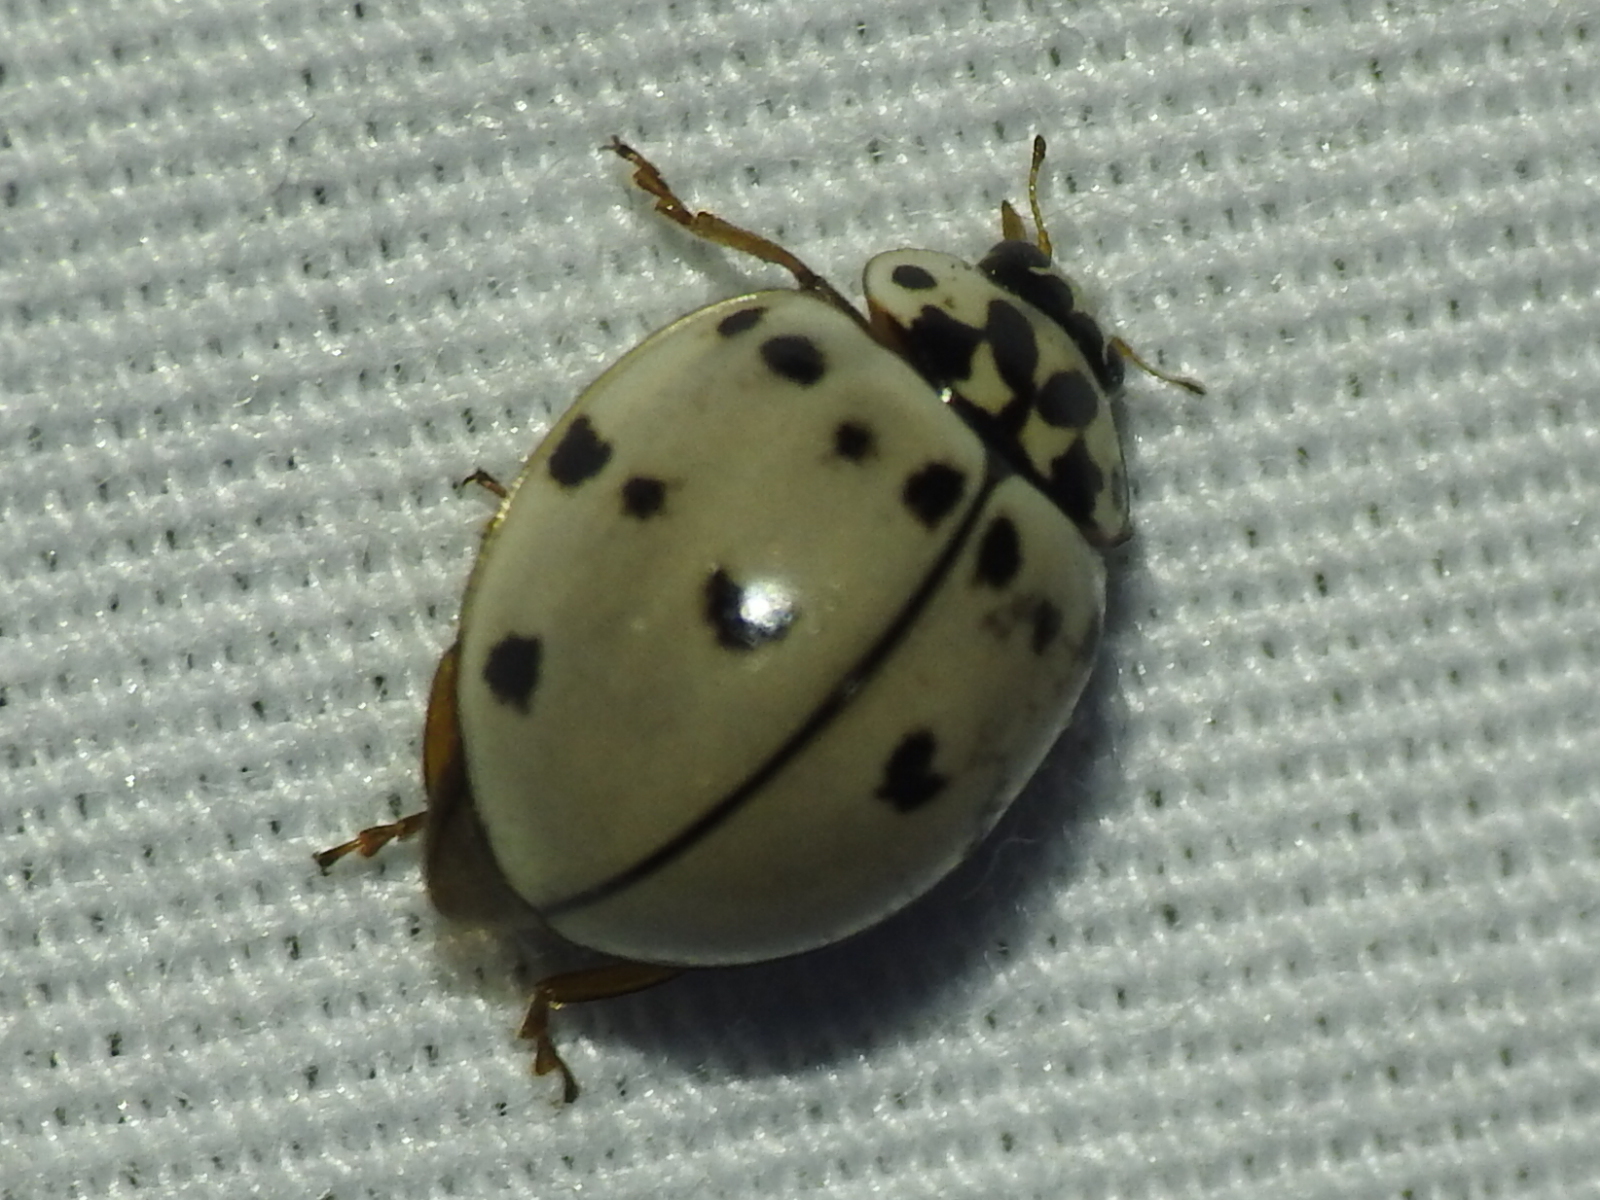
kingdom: Animalia
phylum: Arthropoda
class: Insecta
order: Coleoptera
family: Coccinellidae
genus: Olla
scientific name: Olla v-nigrum
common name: Ashy gray lady beetle
